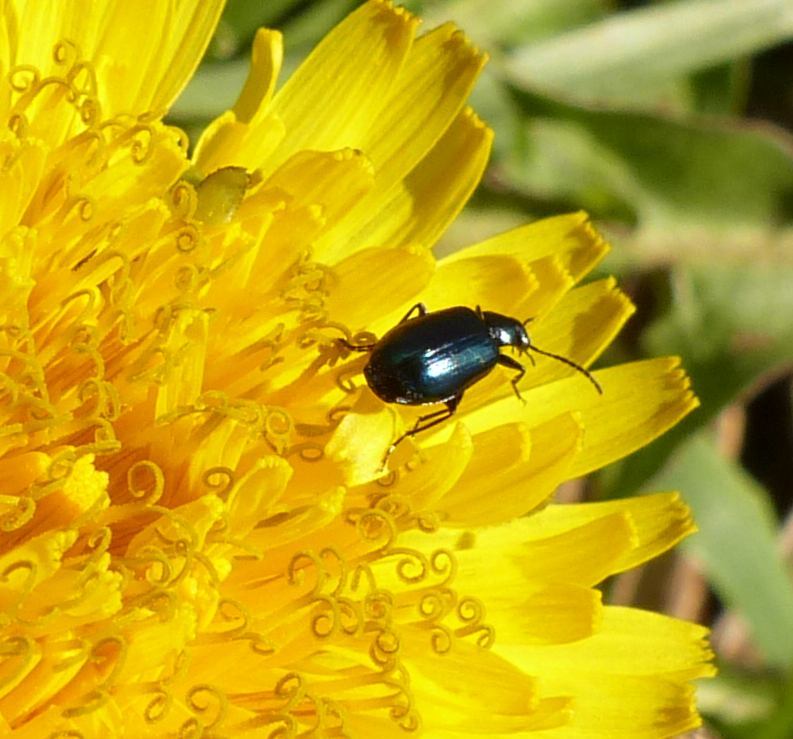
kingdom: Animalia
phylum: Arthropoda
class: Insecta
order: Coleoptera
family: Carabidae
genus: Lebia
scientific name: Lebia viridis
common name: Flower lebia beetle
